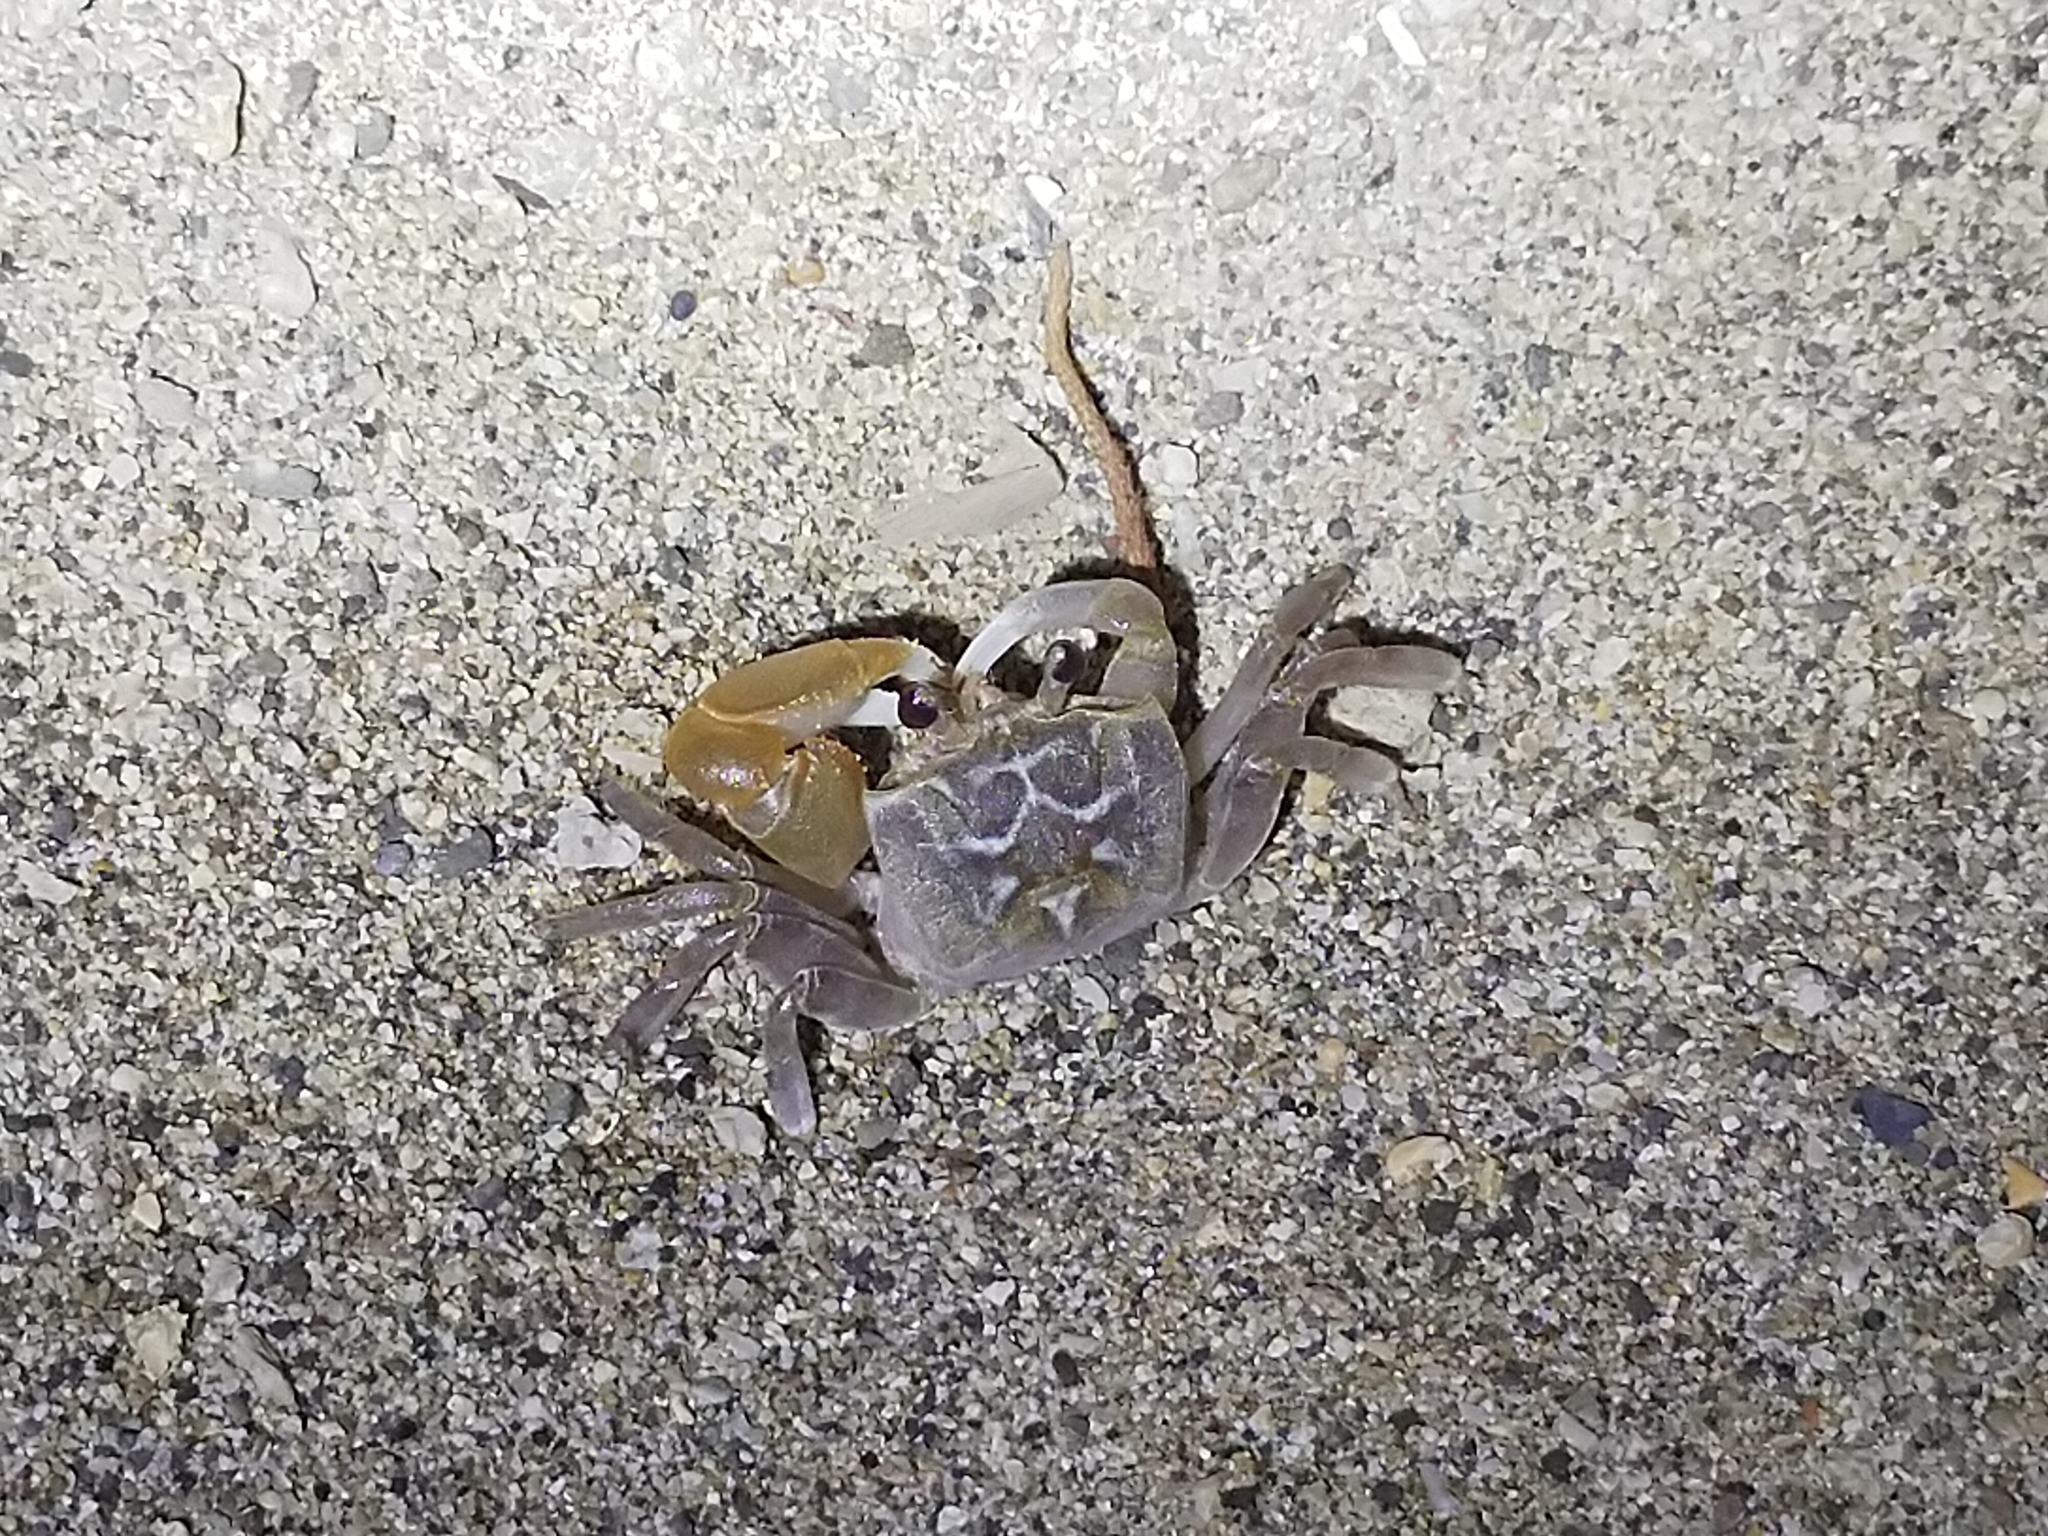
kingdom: Animalia
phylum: Arthropoda
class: Malacostraca
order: Decapoda
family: Ocypodidae
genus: Ocypode
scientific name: Ocypode sinensis
